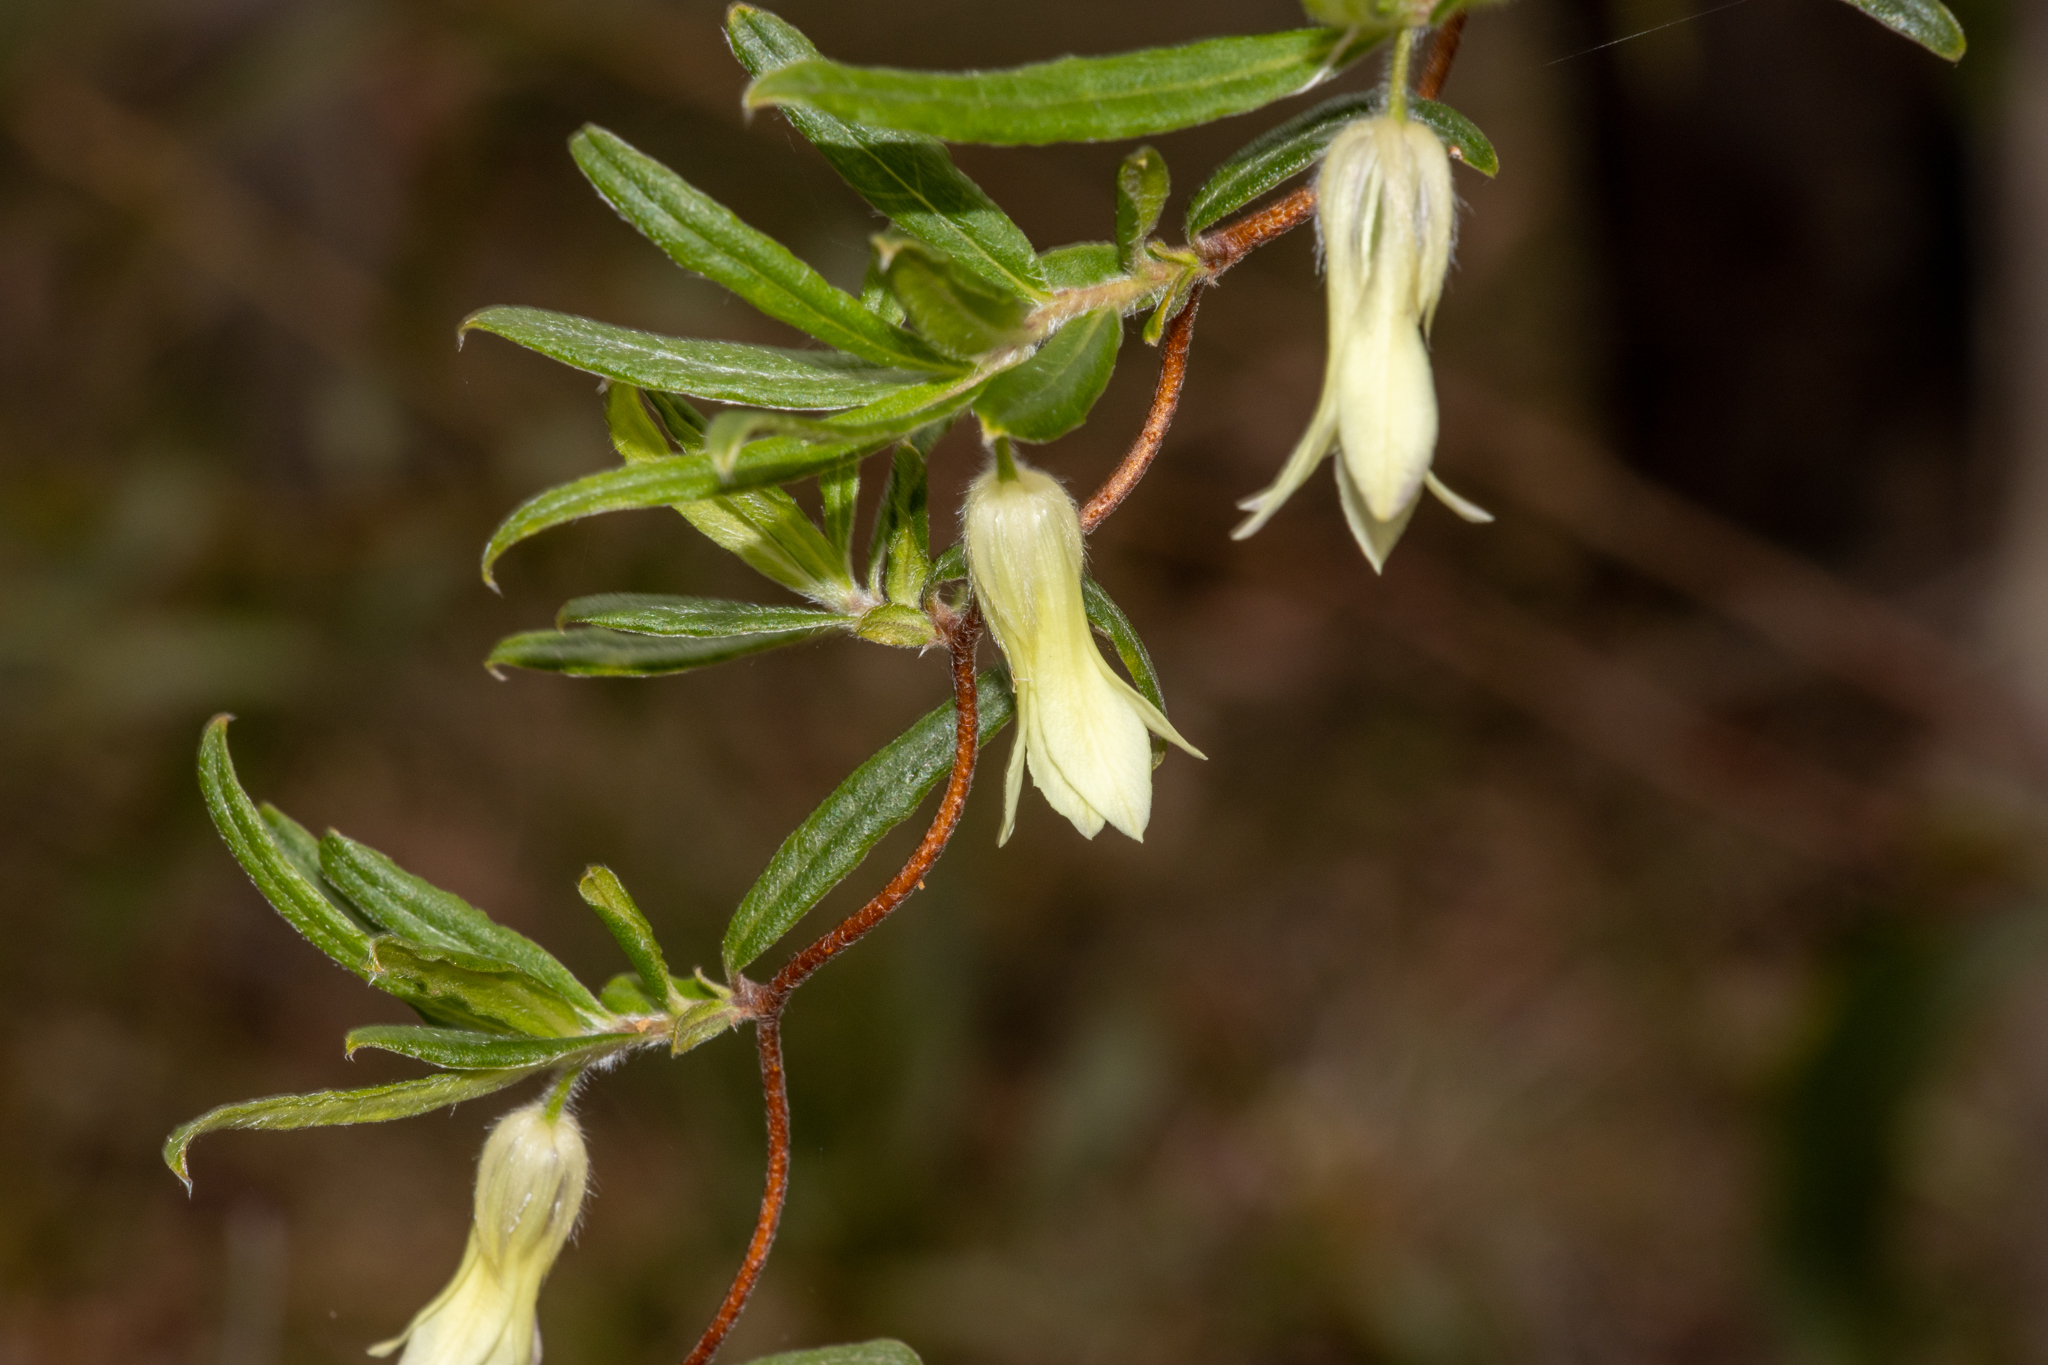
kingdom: Plantae
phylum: Tracheophyta
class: Magnoliopsida
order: Apiales
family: Pittosporaceae
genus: Billardiera
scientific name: Billardiera scandens
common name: Apple-berry
